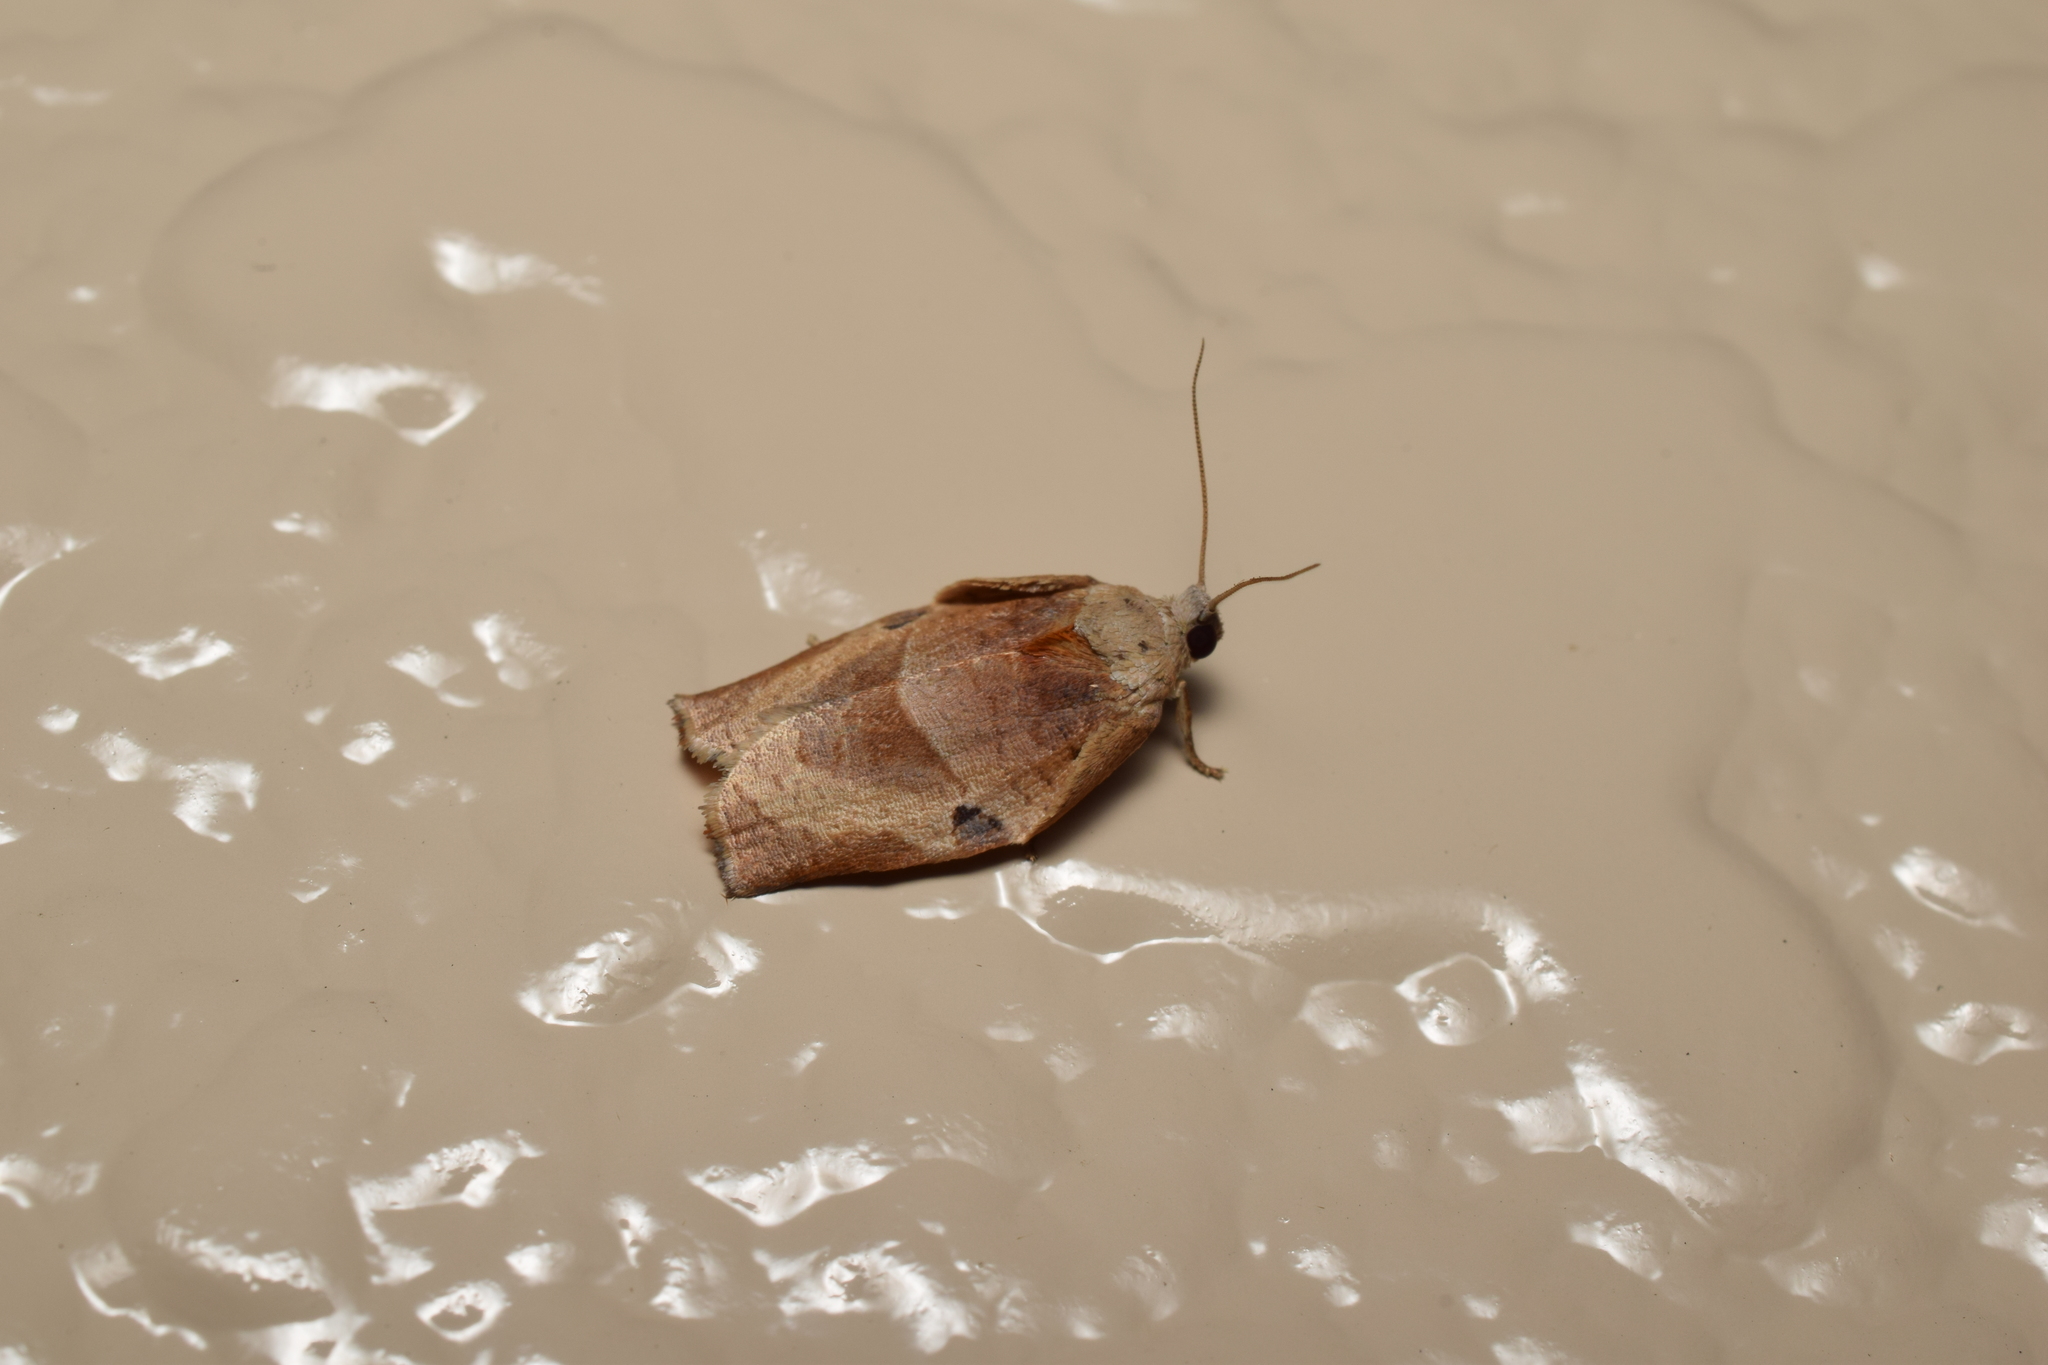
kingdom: Animalia
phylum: Arthropoda
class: Insecta
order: Lepidoptera
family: Tortricidae
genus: Homona
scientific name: Homona magnanima
